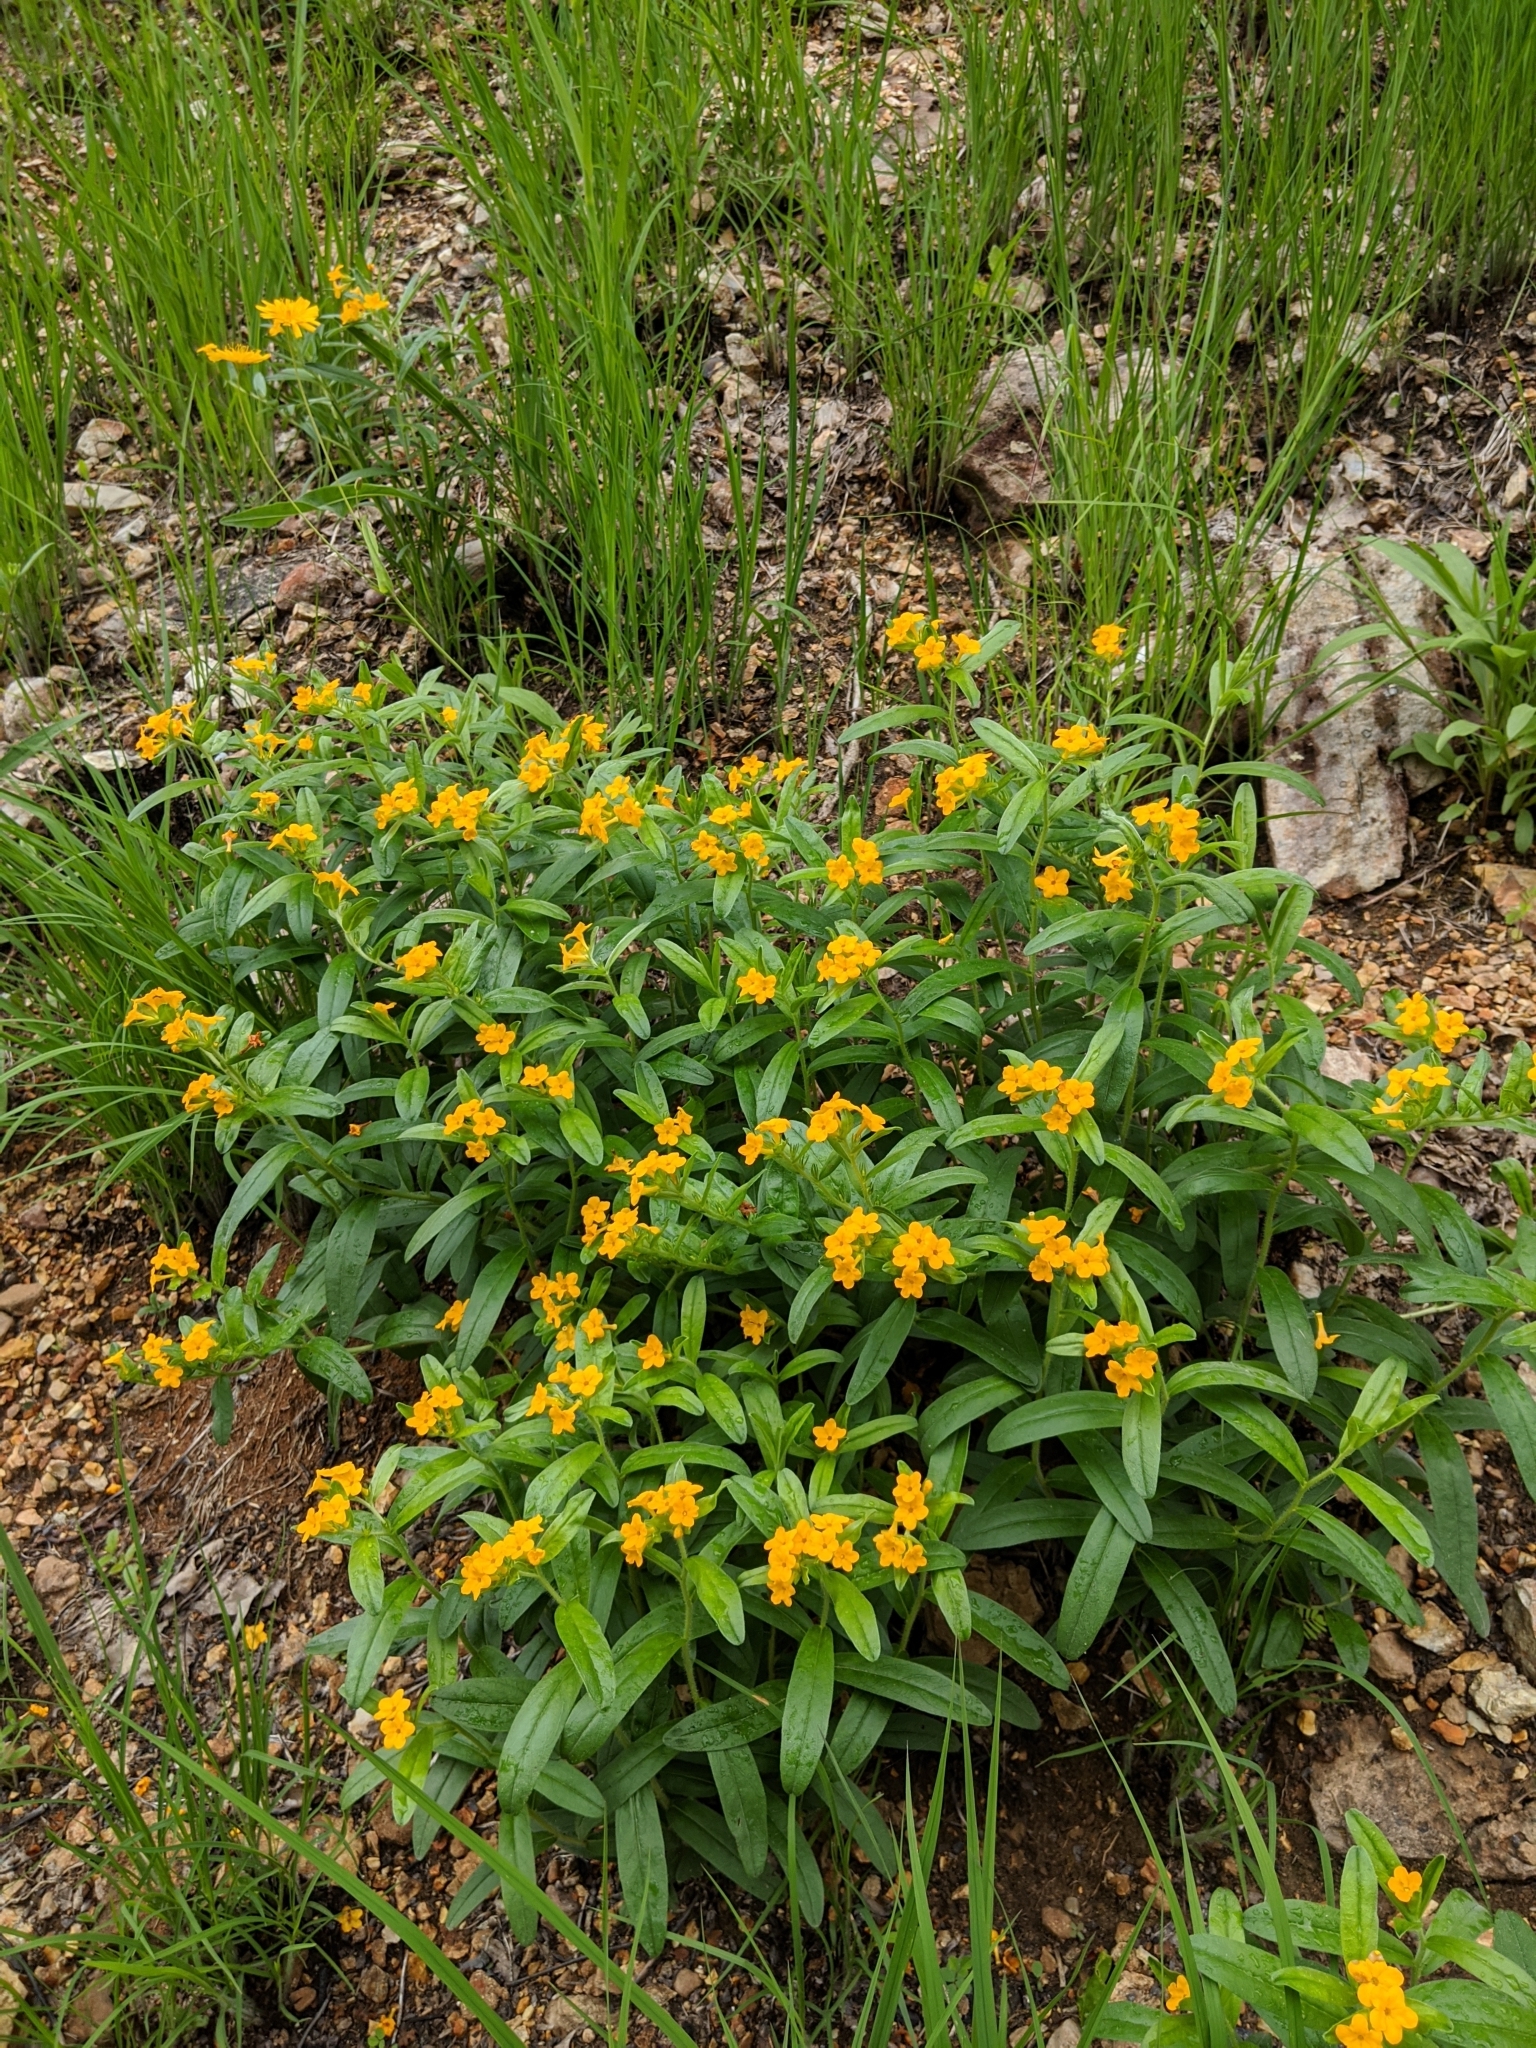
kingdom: Plantae
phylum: Tracheophyta
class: Magnoliopsida
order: Boraginales
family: Boraginaceae
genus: Lithospermum
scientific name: Lithospermum canescens
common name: Hoary puccoon
